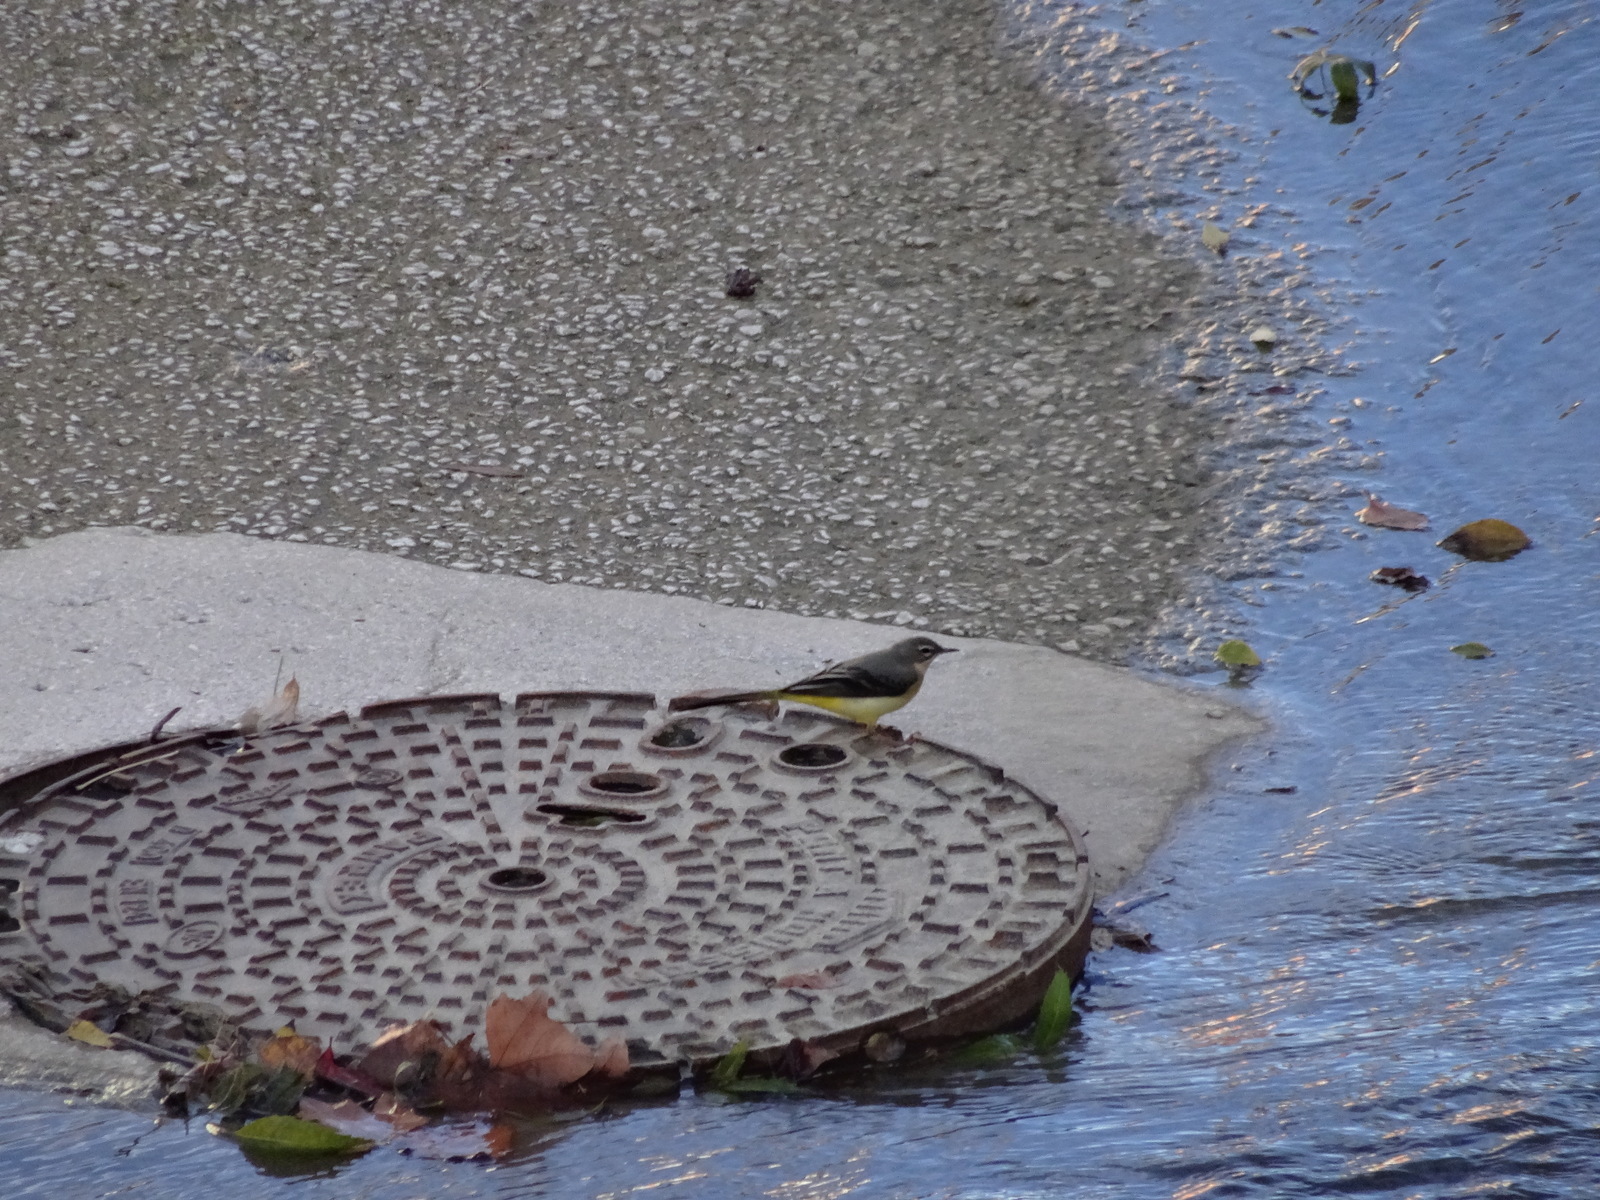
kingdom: Animalia
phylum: Chordata
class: Aves
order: Passeriformes
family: Motacillidae
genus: Motacilla
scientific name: Motacilla cinerea
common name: Grey wagtail
